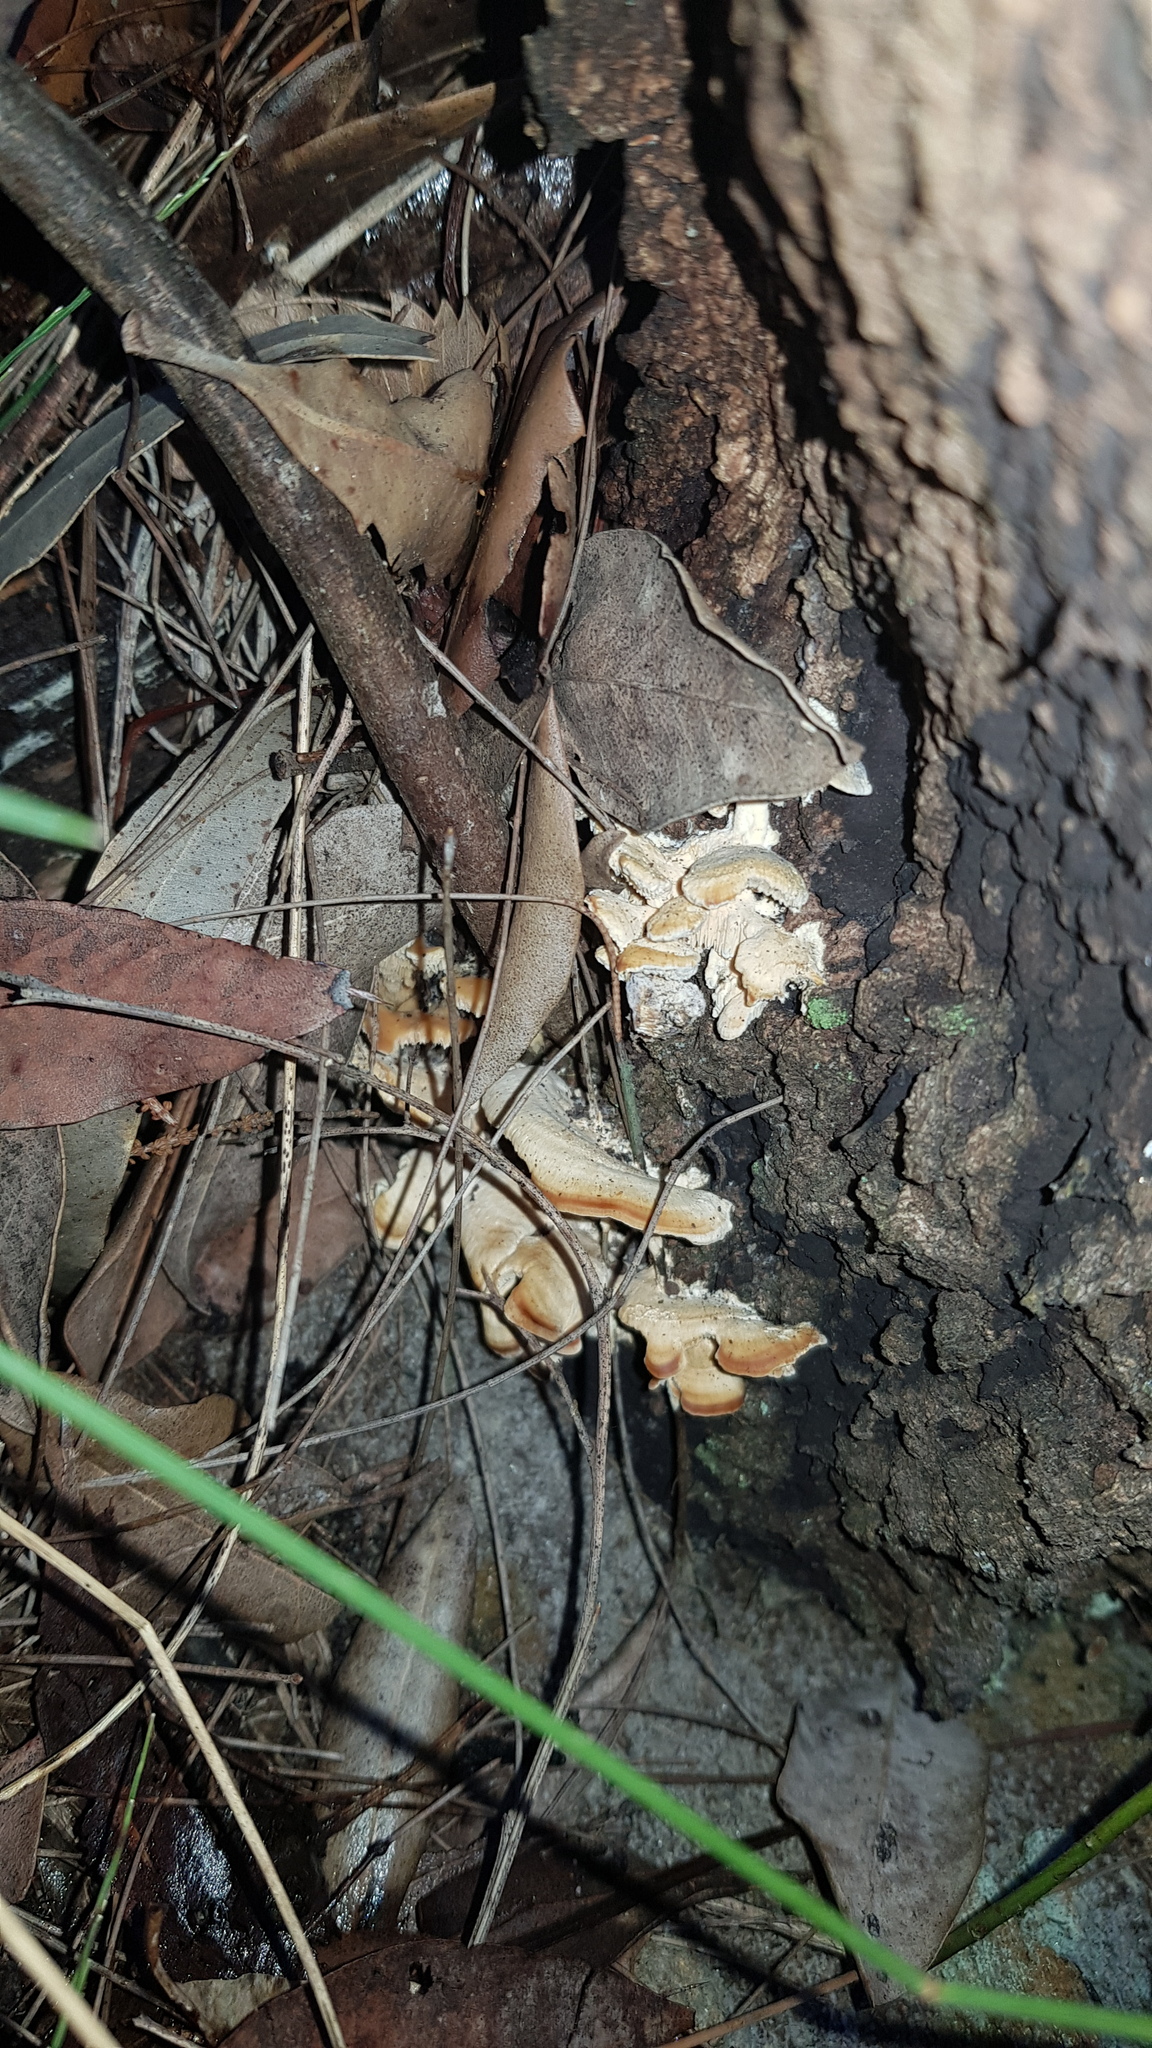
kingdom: Fungi
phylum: Basidiomycota
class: Agaricomycetes
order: Polyporales
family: Cerrenaceae
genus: Cerrena
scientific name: Cerrena zonata
